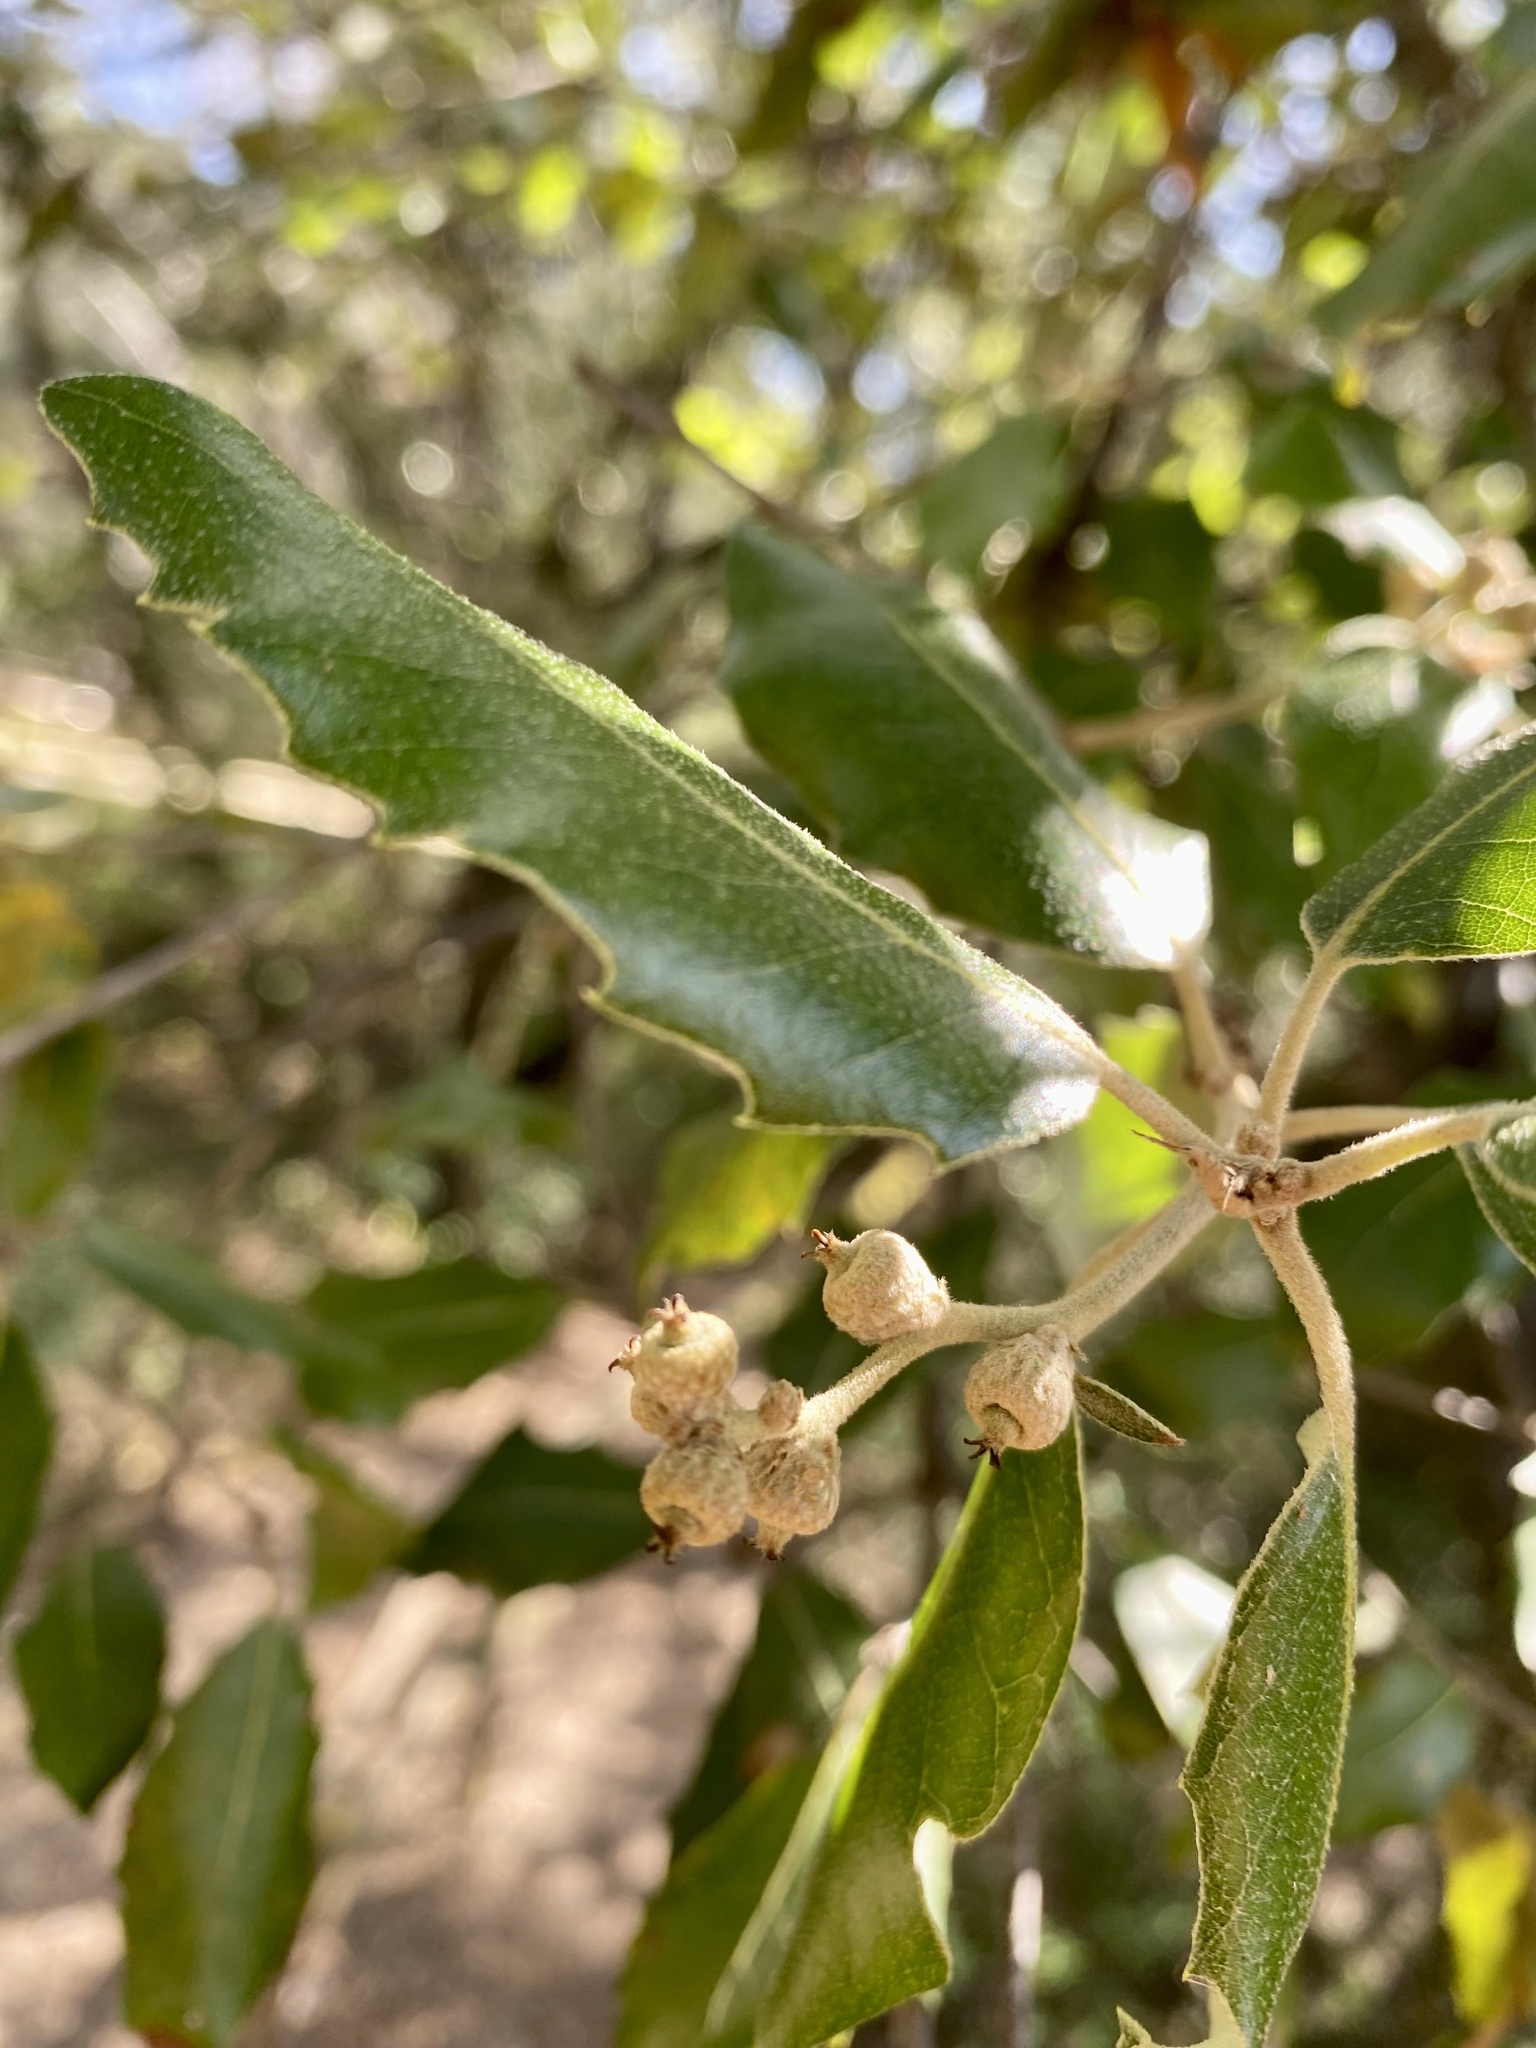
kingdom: Plantae
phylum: Tracheophyta
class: Magnoliopsida
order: Fagales
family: Fagaceae
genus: Quercus
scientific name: Quercus ilex
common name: Evergreen oak
